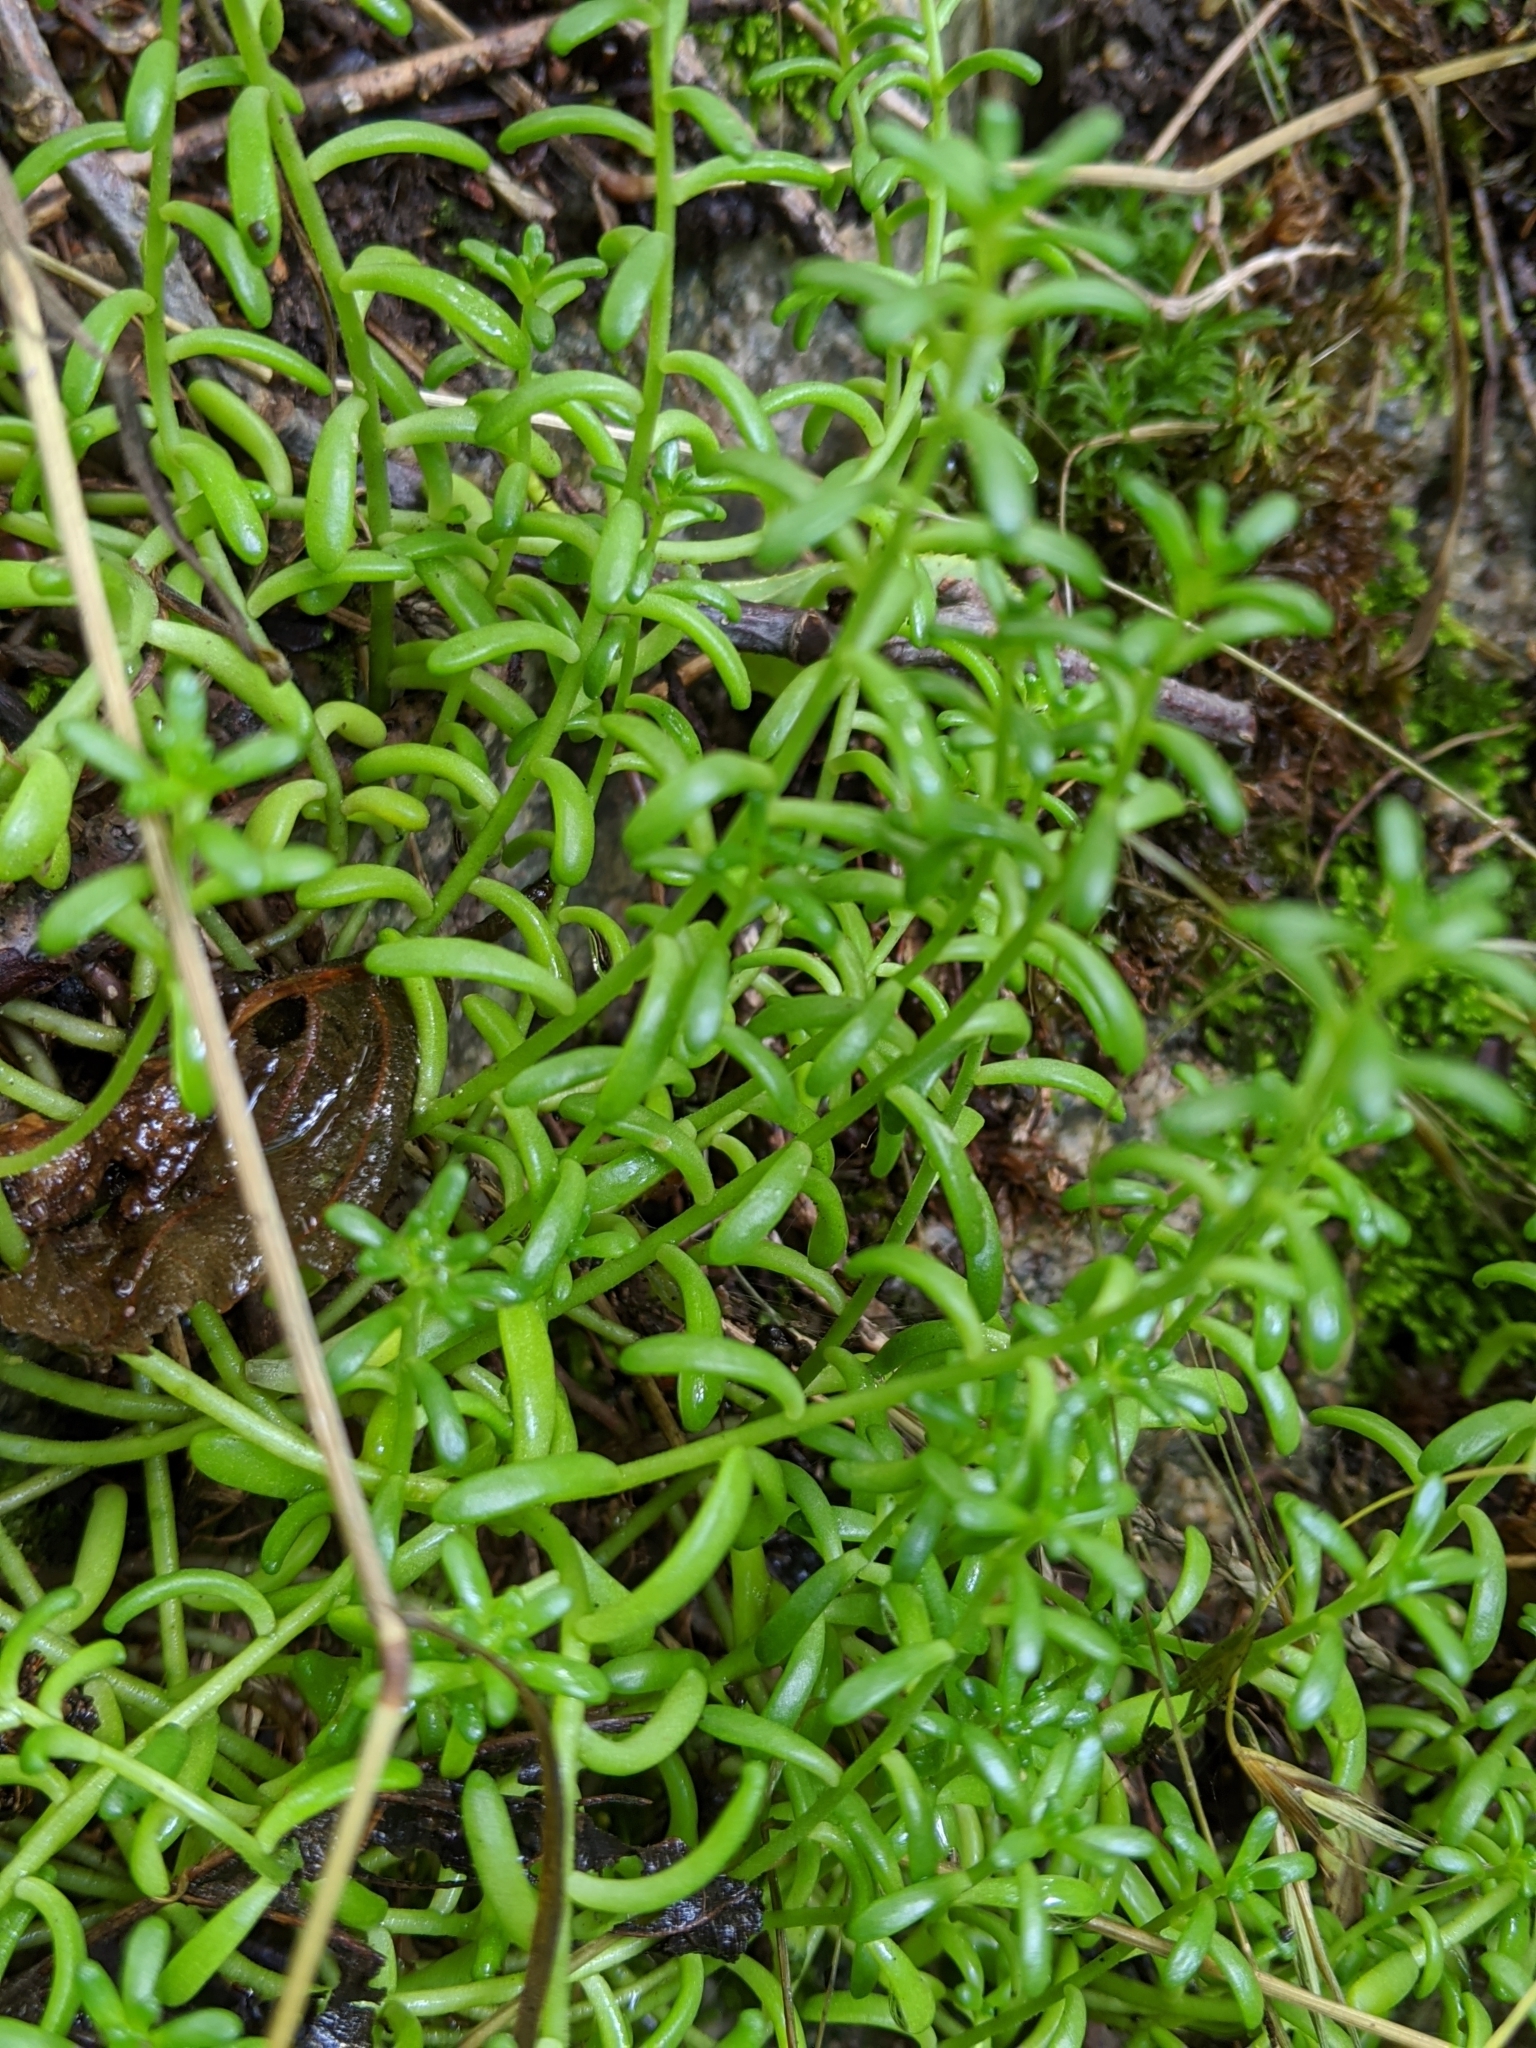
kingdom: Plantae
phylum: Tracheophyta
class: Magnoliopsida
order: Saxifragales
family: Crassulaceae
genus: Sedum
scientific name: Sedum album
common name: White stonecrop
